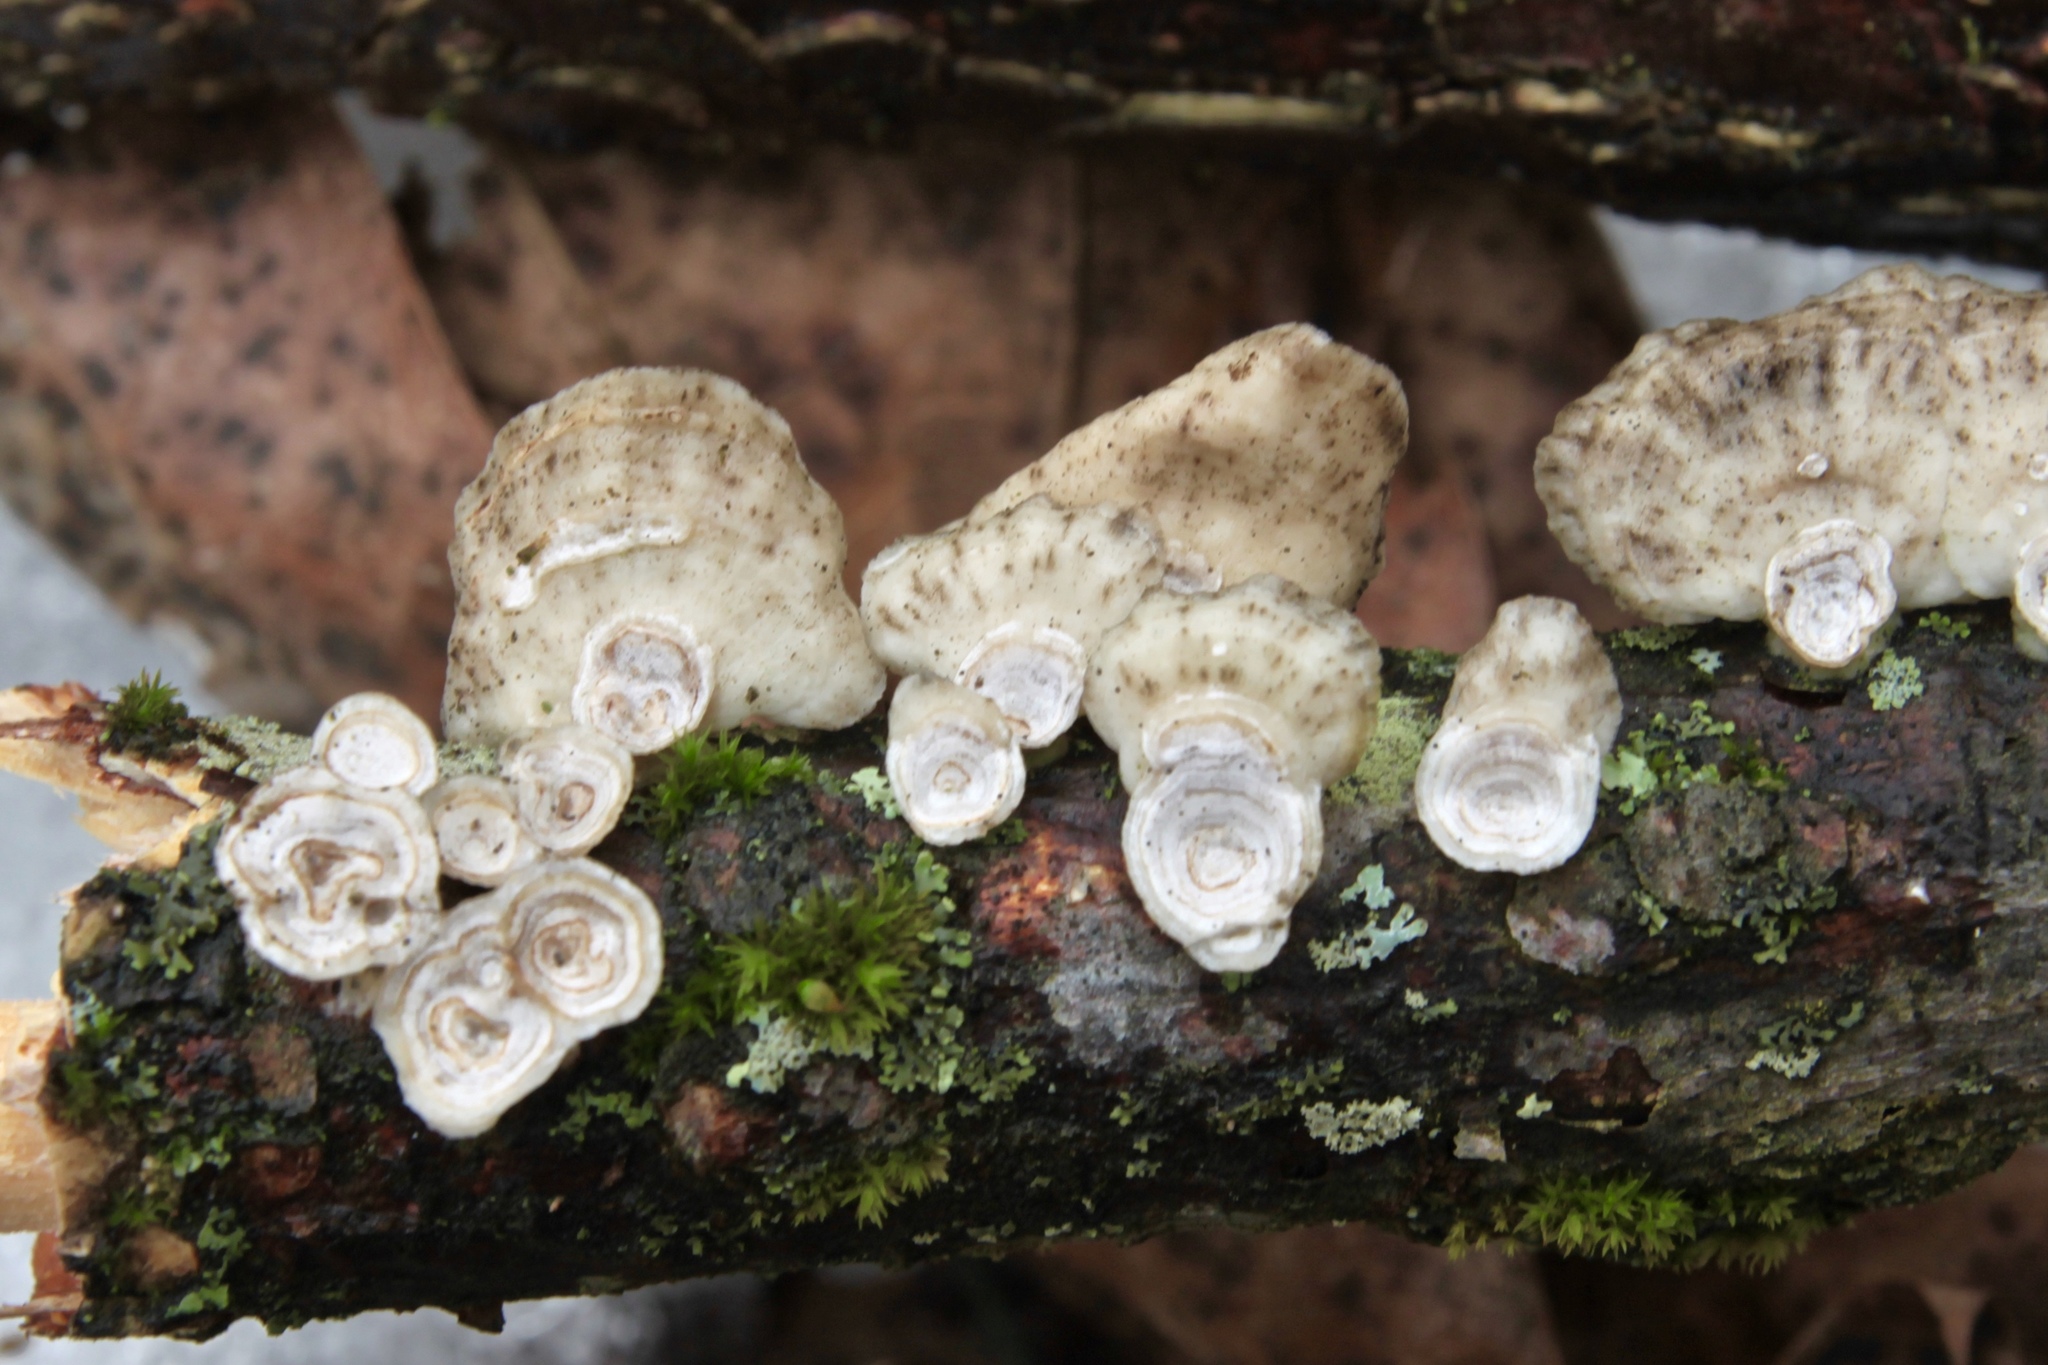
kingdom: Fungi
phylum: Basidiomycota
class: Agaricomycetes
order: Polyporales
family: Polyporaceae
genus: Poronidulus
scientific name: Poronidulus conchifer
